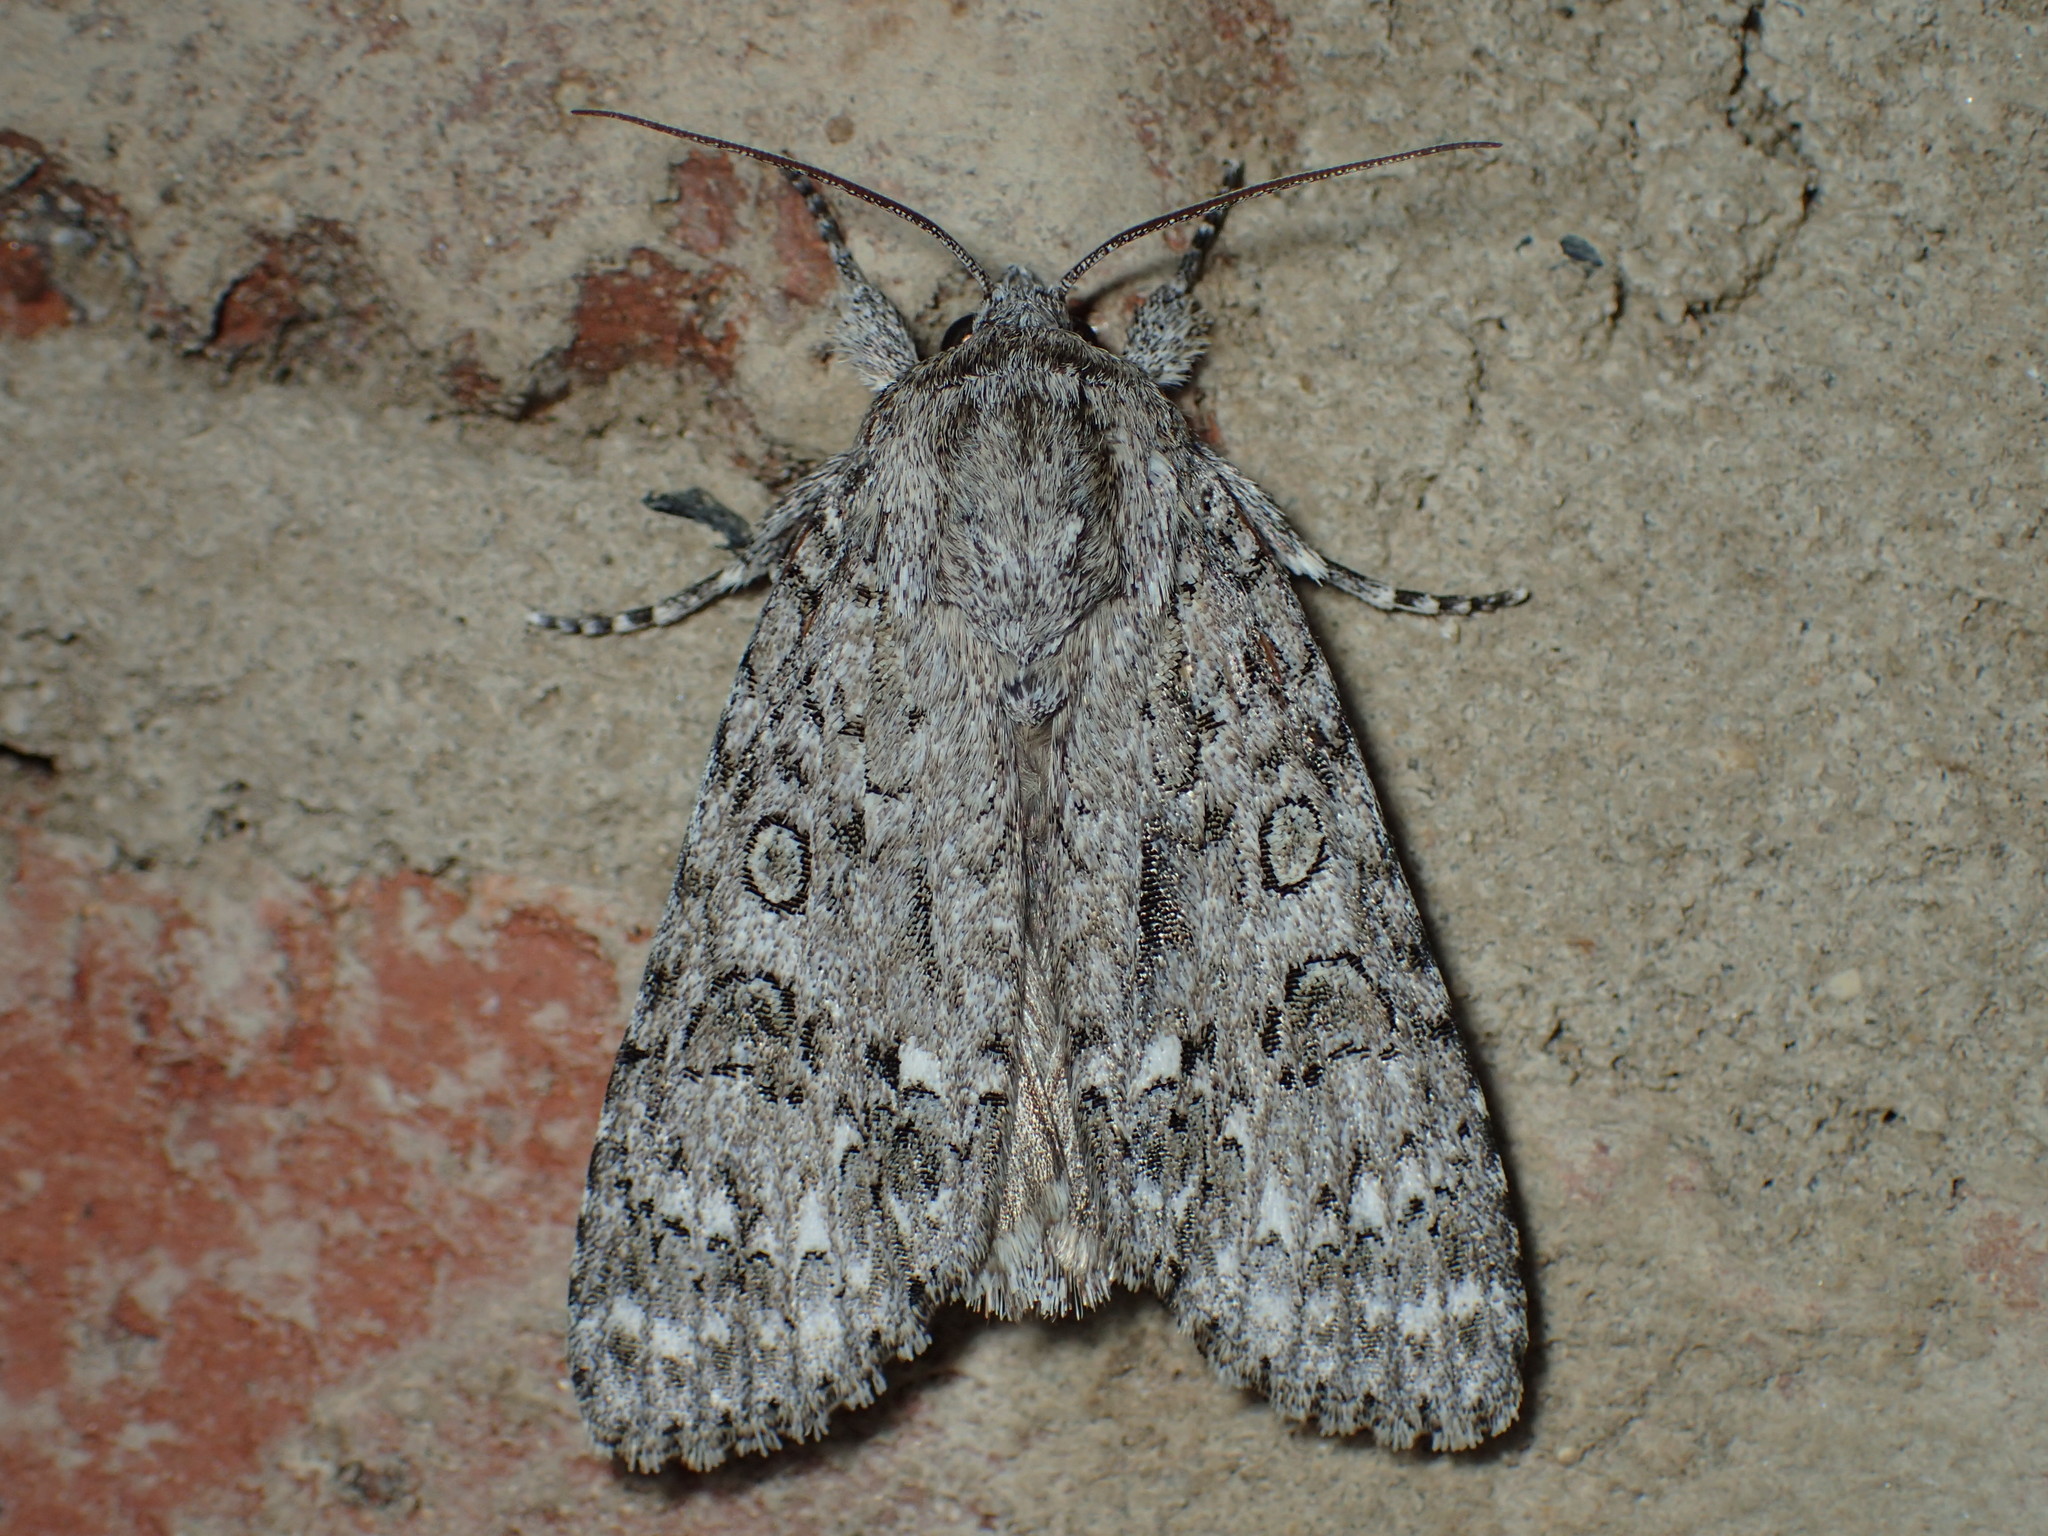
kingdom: Animalia
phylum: Arthropoda
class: Insecta
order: Lepidoptera
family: Noctuidae
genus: Acronicta
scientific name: Acronicta impleta
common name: Powdered dagger
